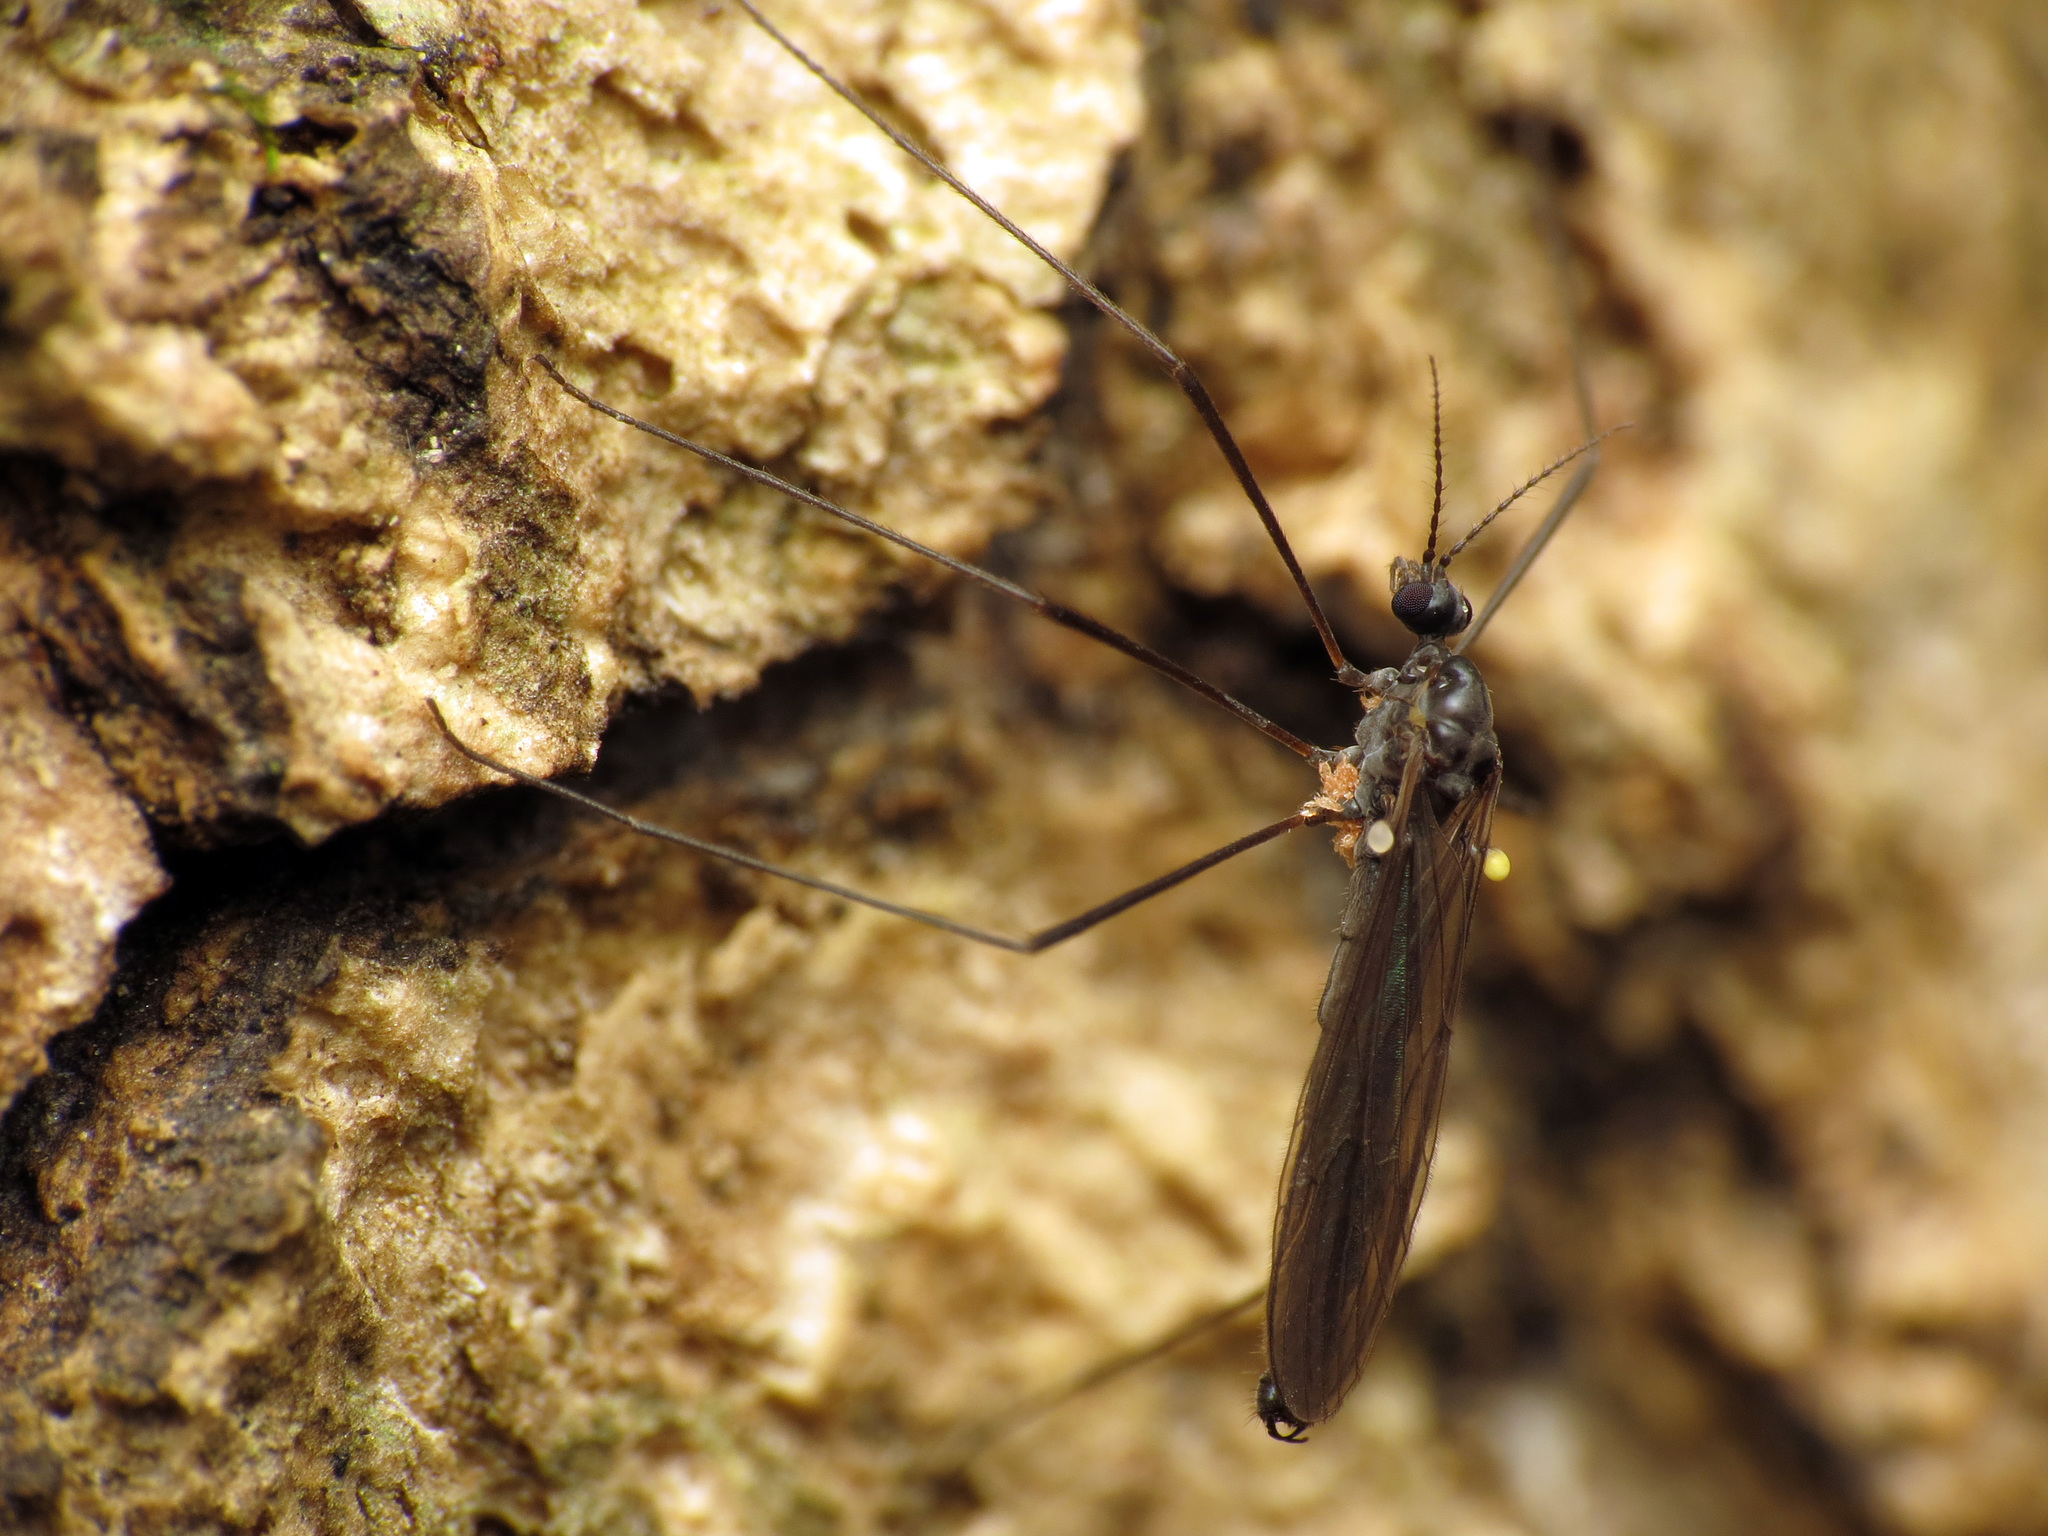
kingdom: Animalia
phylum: Arthropoda
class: Insecta
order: Diptera
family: Limoniidae
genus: Gnophomyia
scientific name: Gnophomyia tristissima
